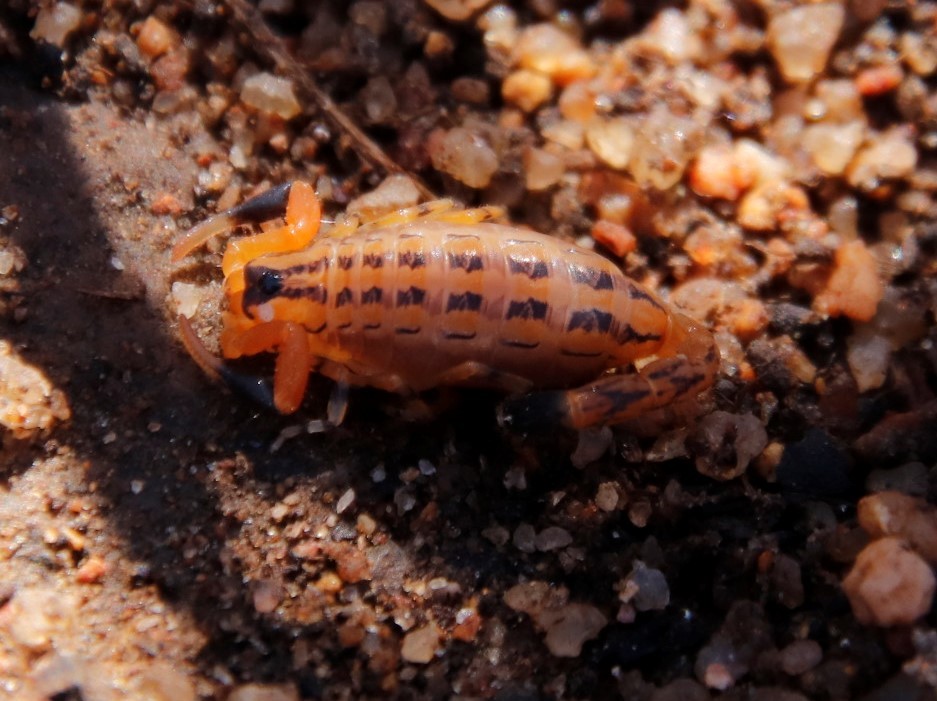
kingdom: Animalia
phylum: Arthropoda
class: Arachnida
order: Scorpiones
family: Buthidae
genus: Uroplectes
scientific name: Uroplectes formosus
